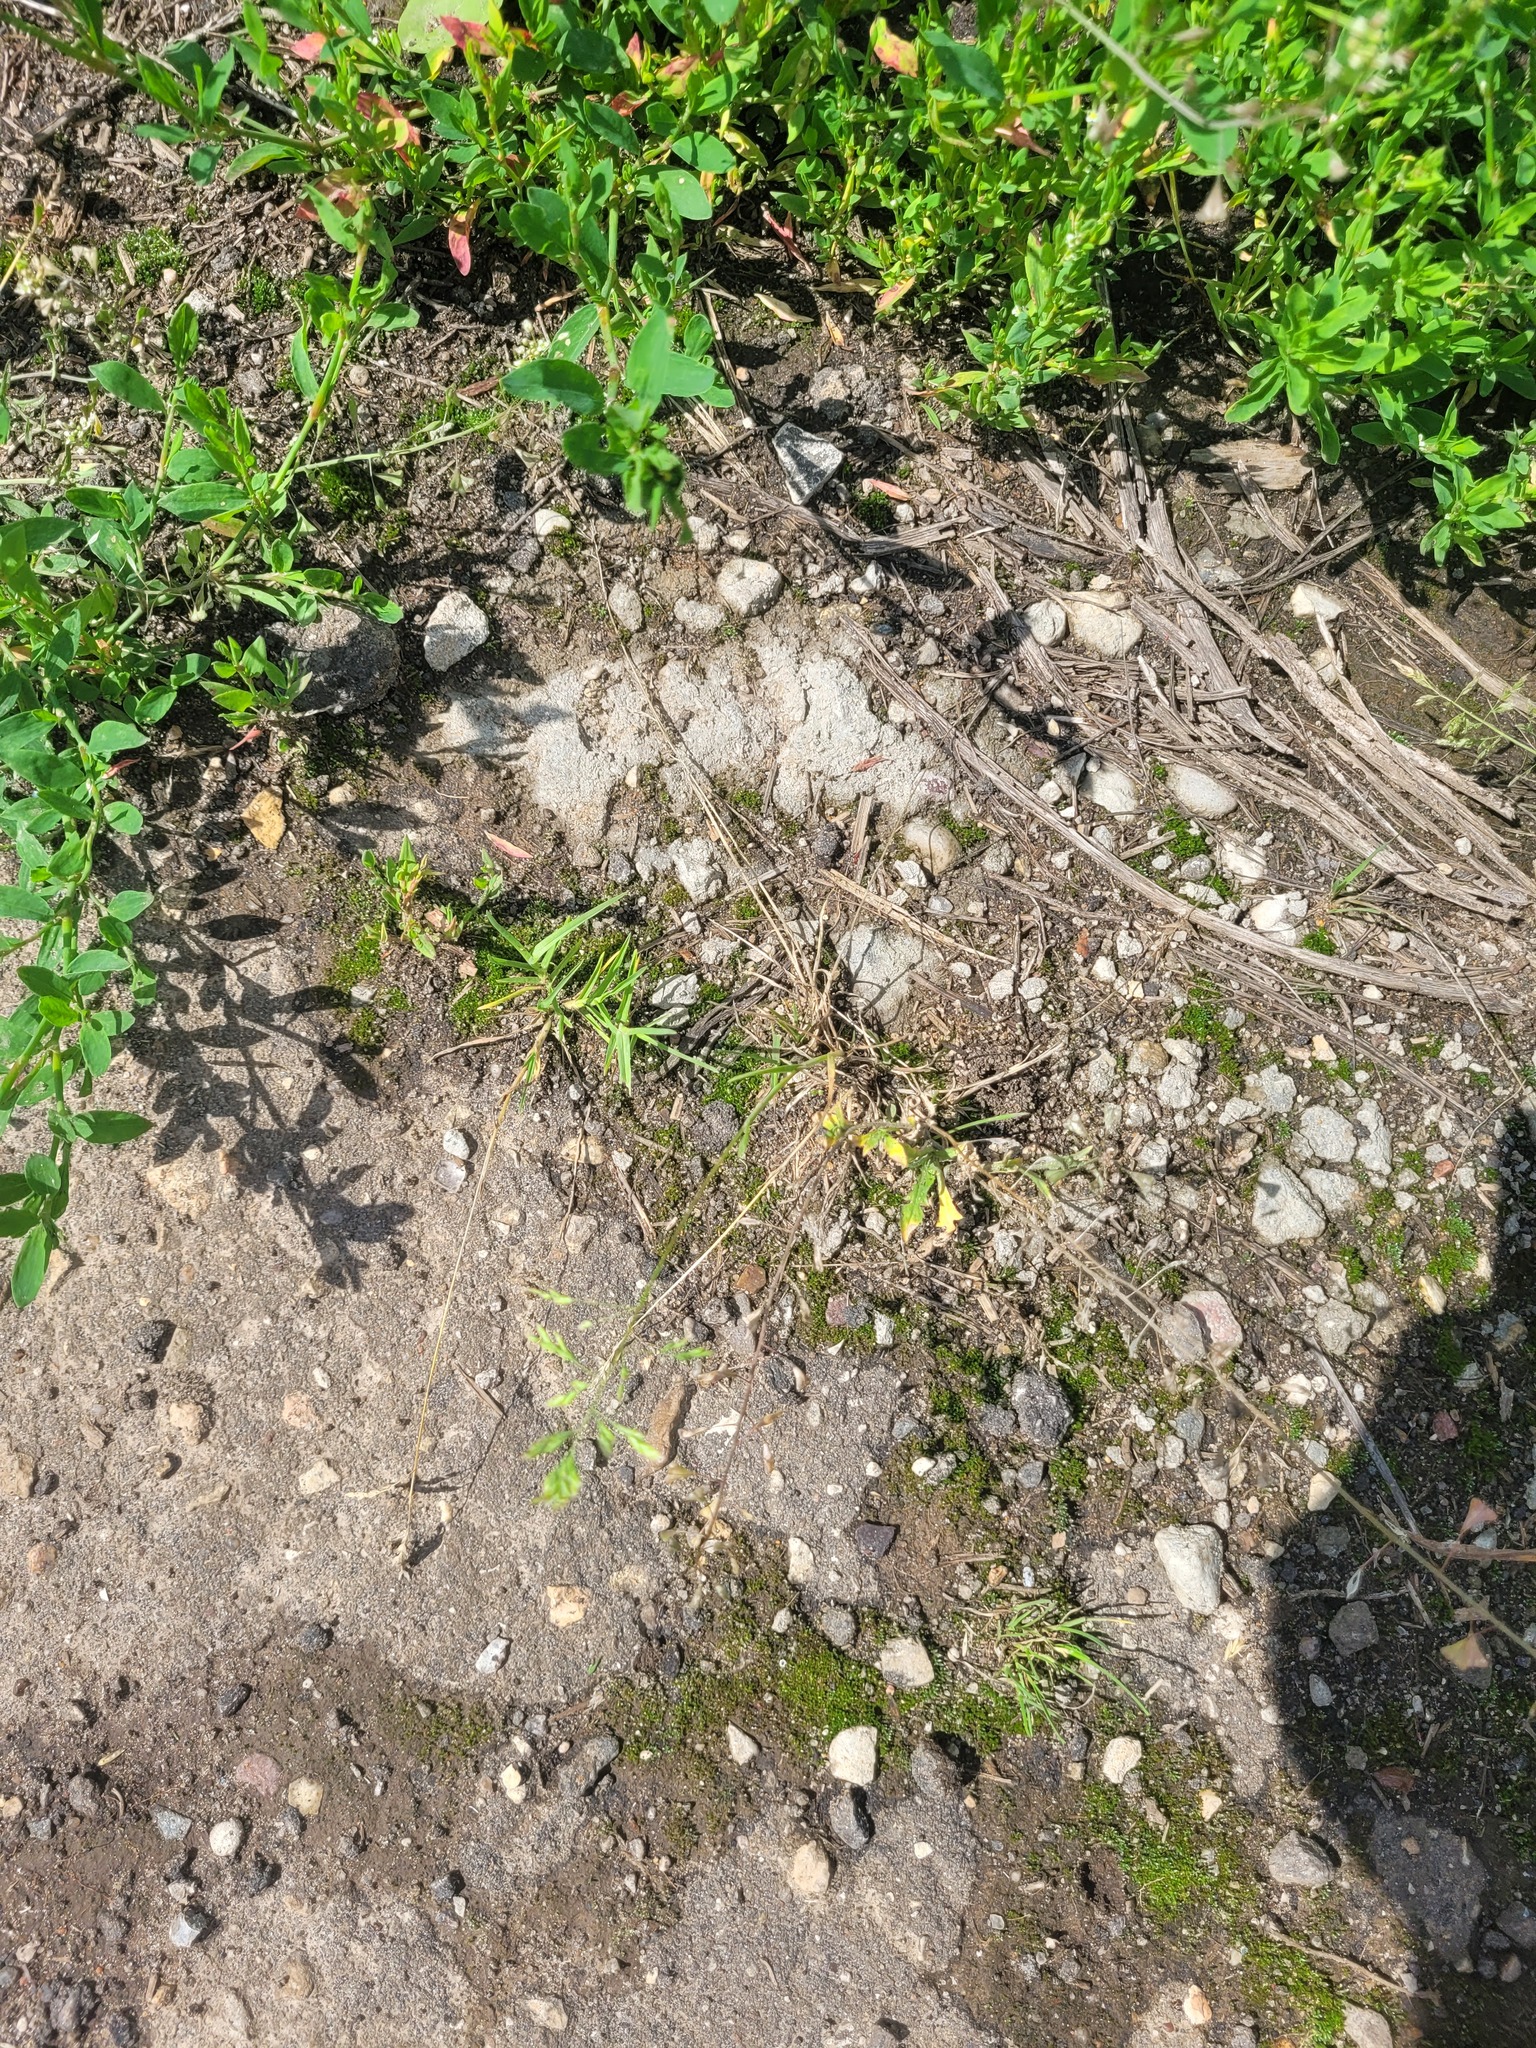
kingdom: Plantae
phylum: Tracheophyta
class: Liliopsida
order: Poales
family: Poaceae
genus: Poa
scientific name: Poa annua
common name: Annual bluegrass
